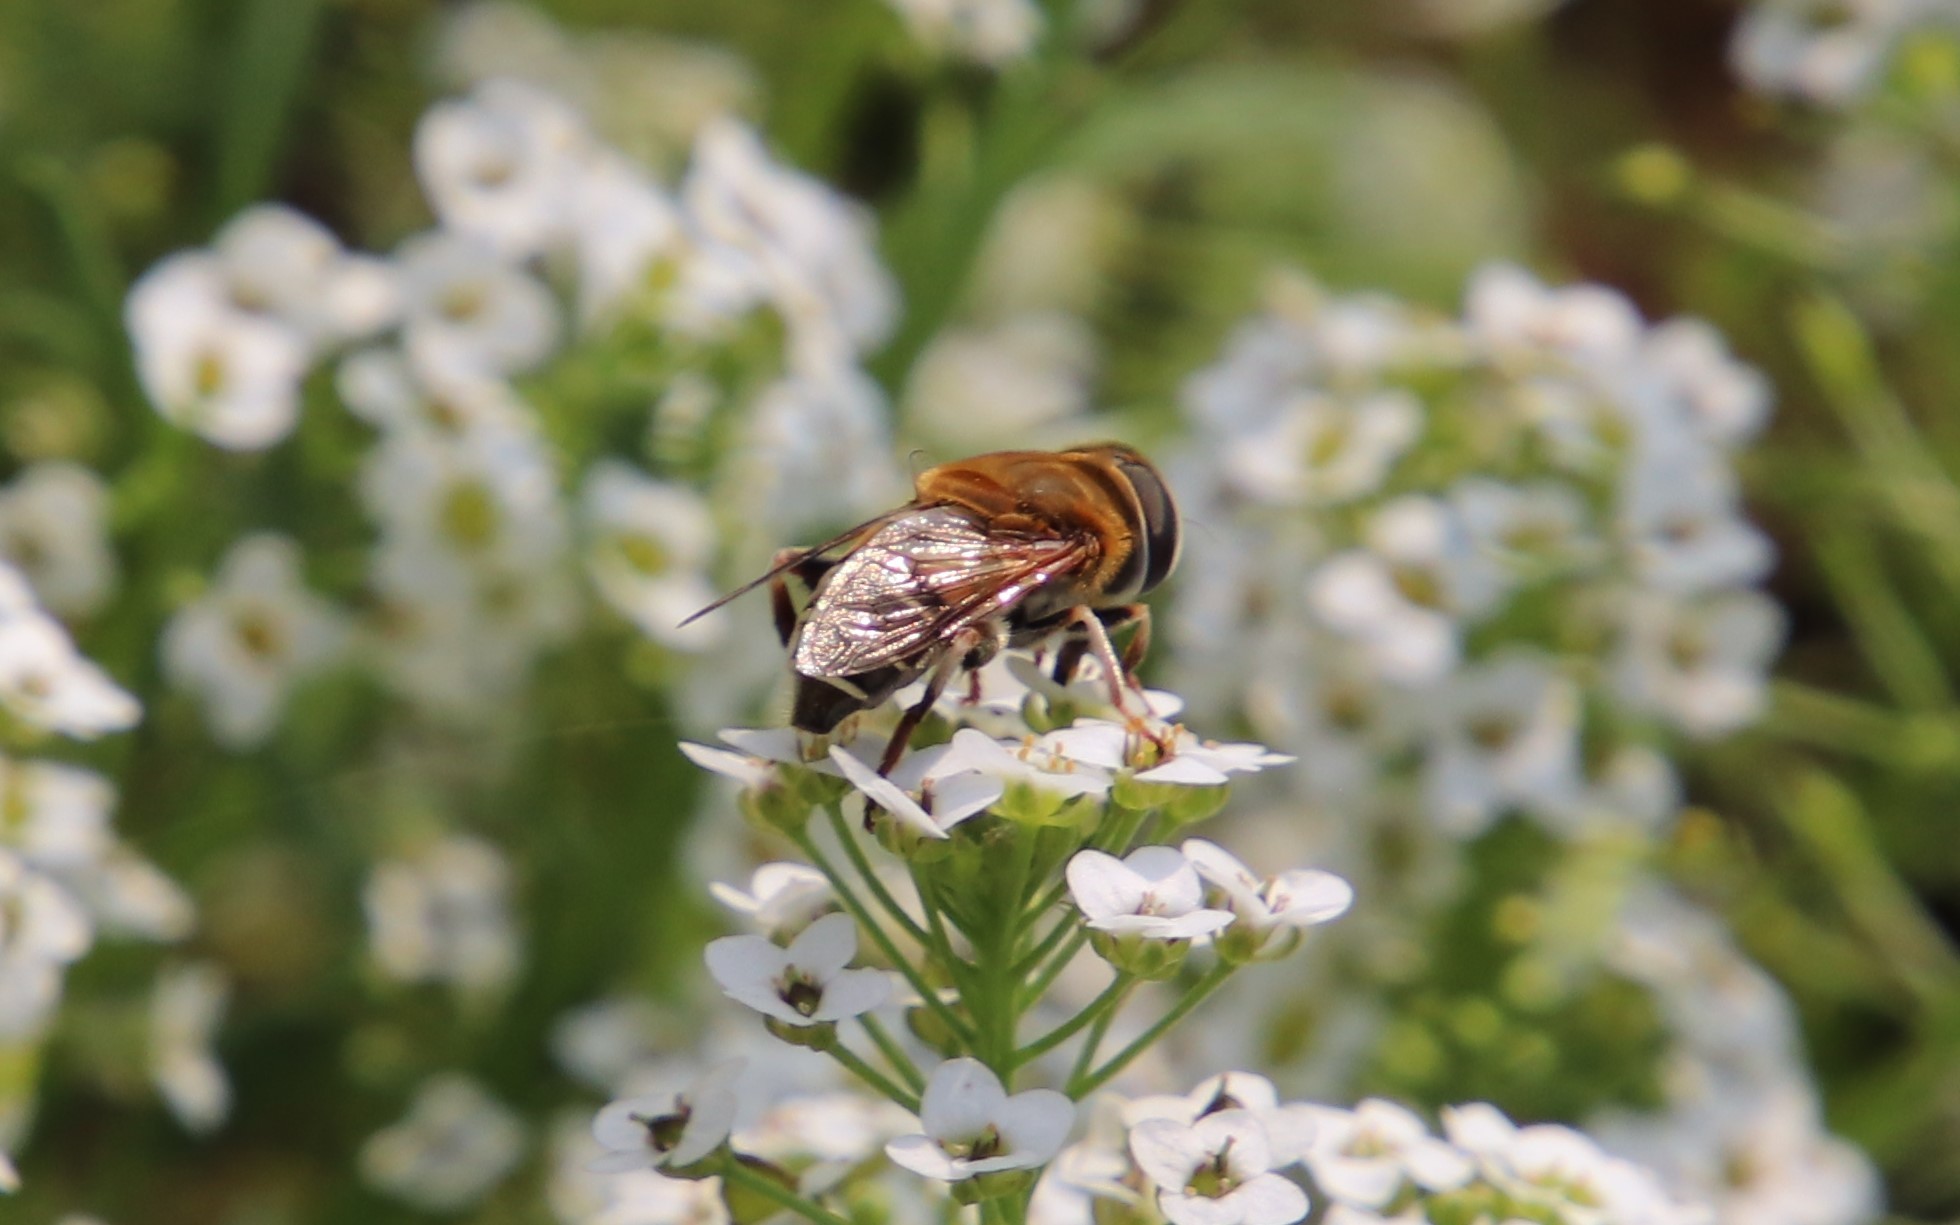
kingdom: Animalia
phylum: Arthropoda
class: Insecta
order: Diptera
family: Syrphidae
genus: Palpada
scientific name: Palpada mexicana
